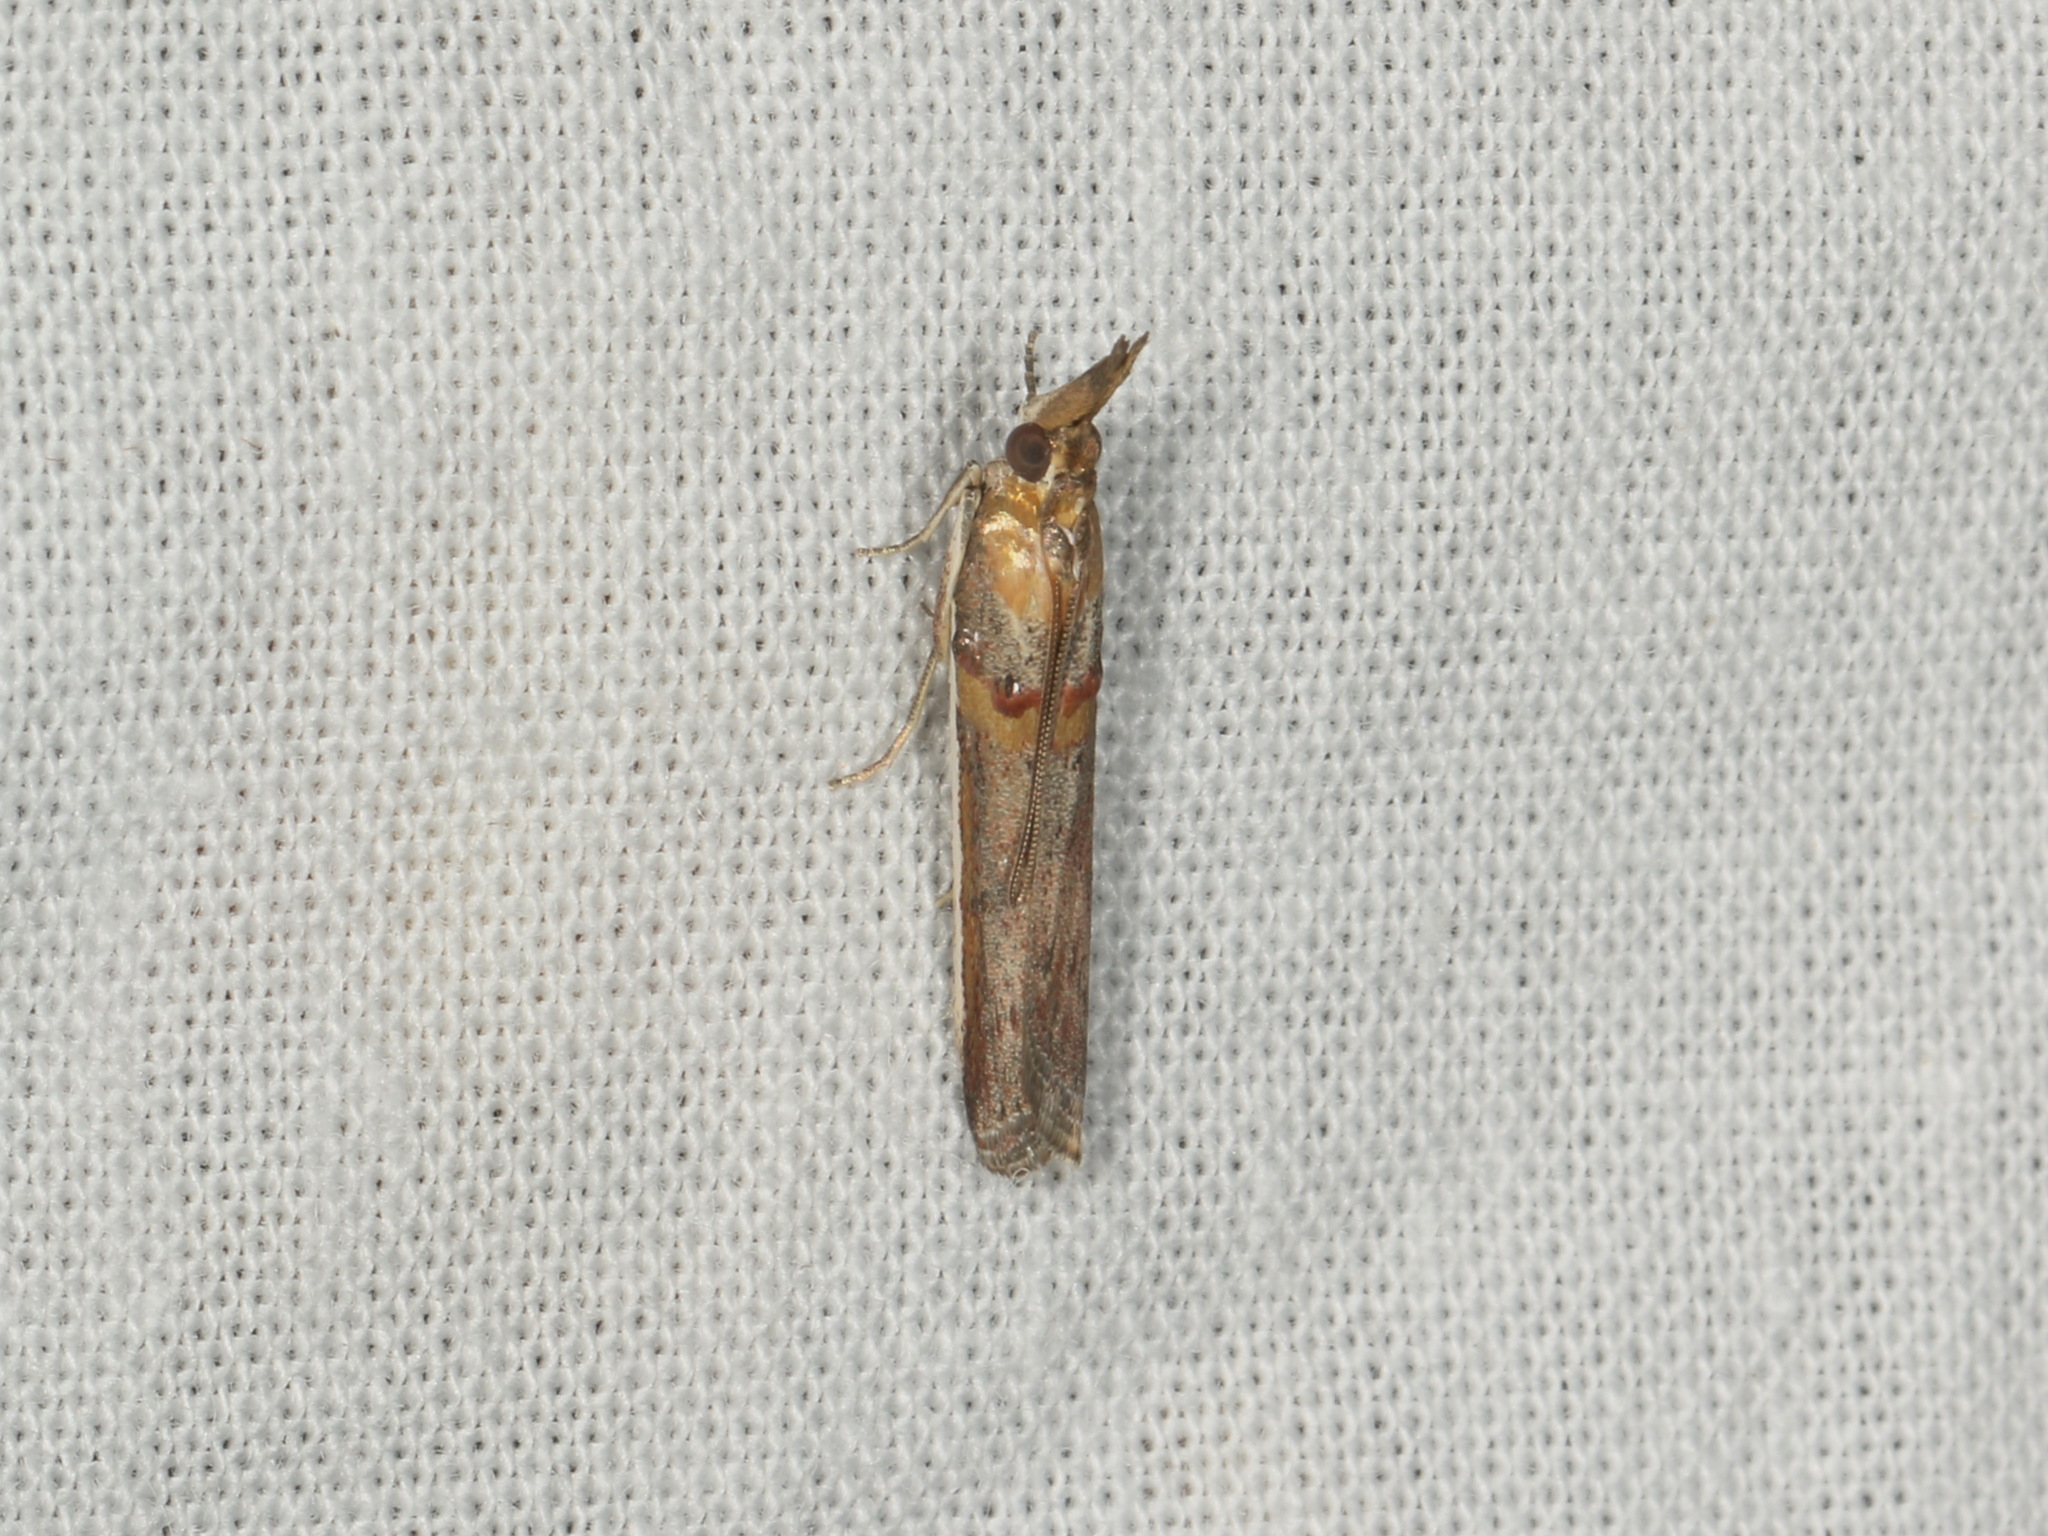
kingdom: Animalia
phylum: Arthropoda
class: Insecta
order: Lepidoptera
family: Pyralidae
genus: Etiella
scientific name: Etiella behrii
